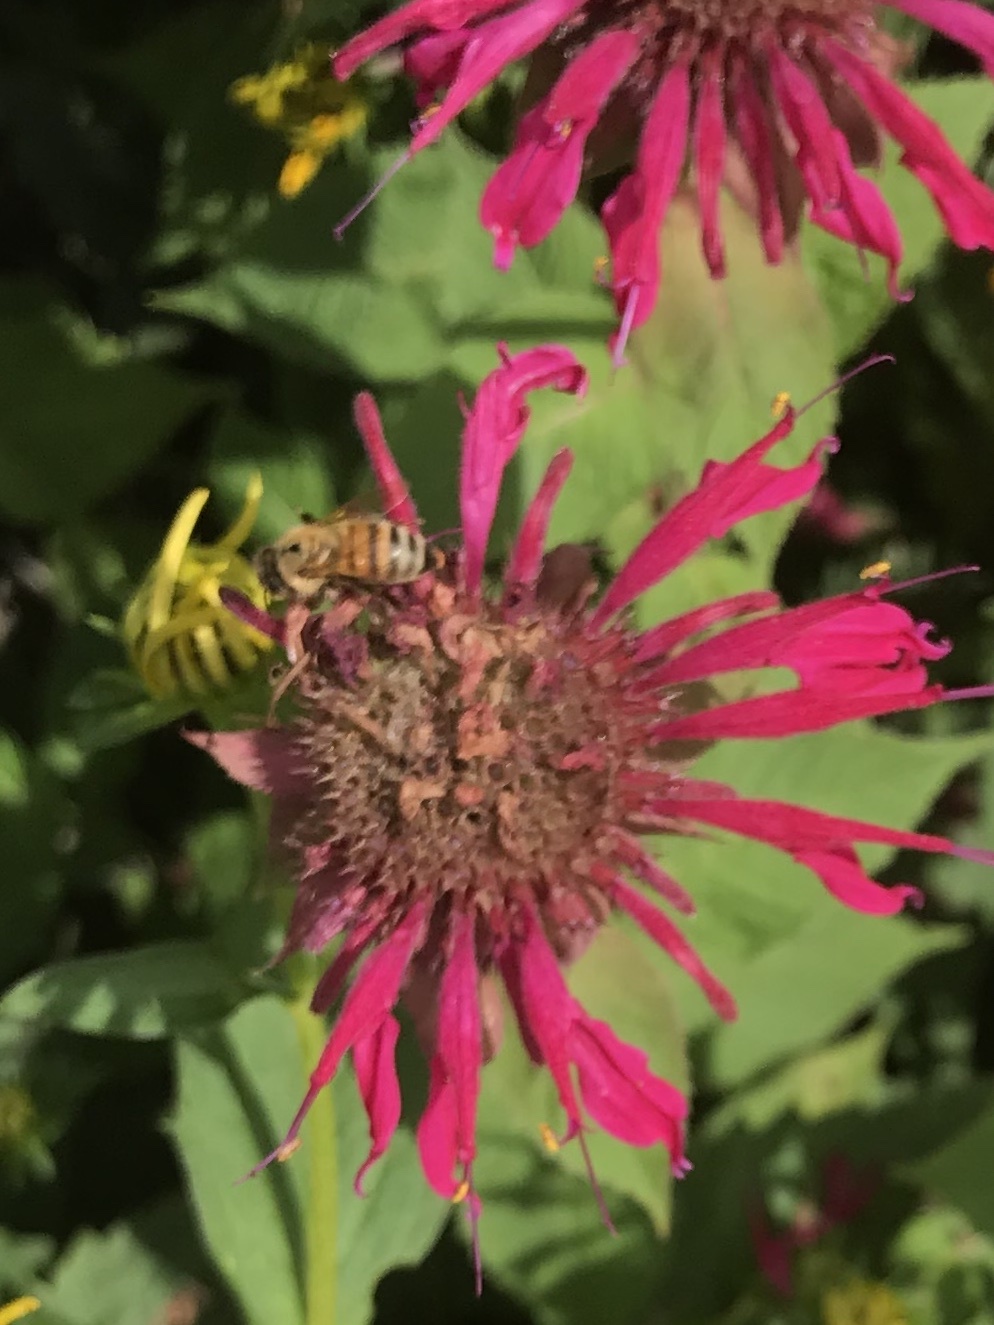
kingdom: Animalia
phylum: Arthropoda
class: Insecta
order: Hymenoptera
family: Apidae
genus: Apis
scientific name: Apis mellifera
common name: Honey bee
